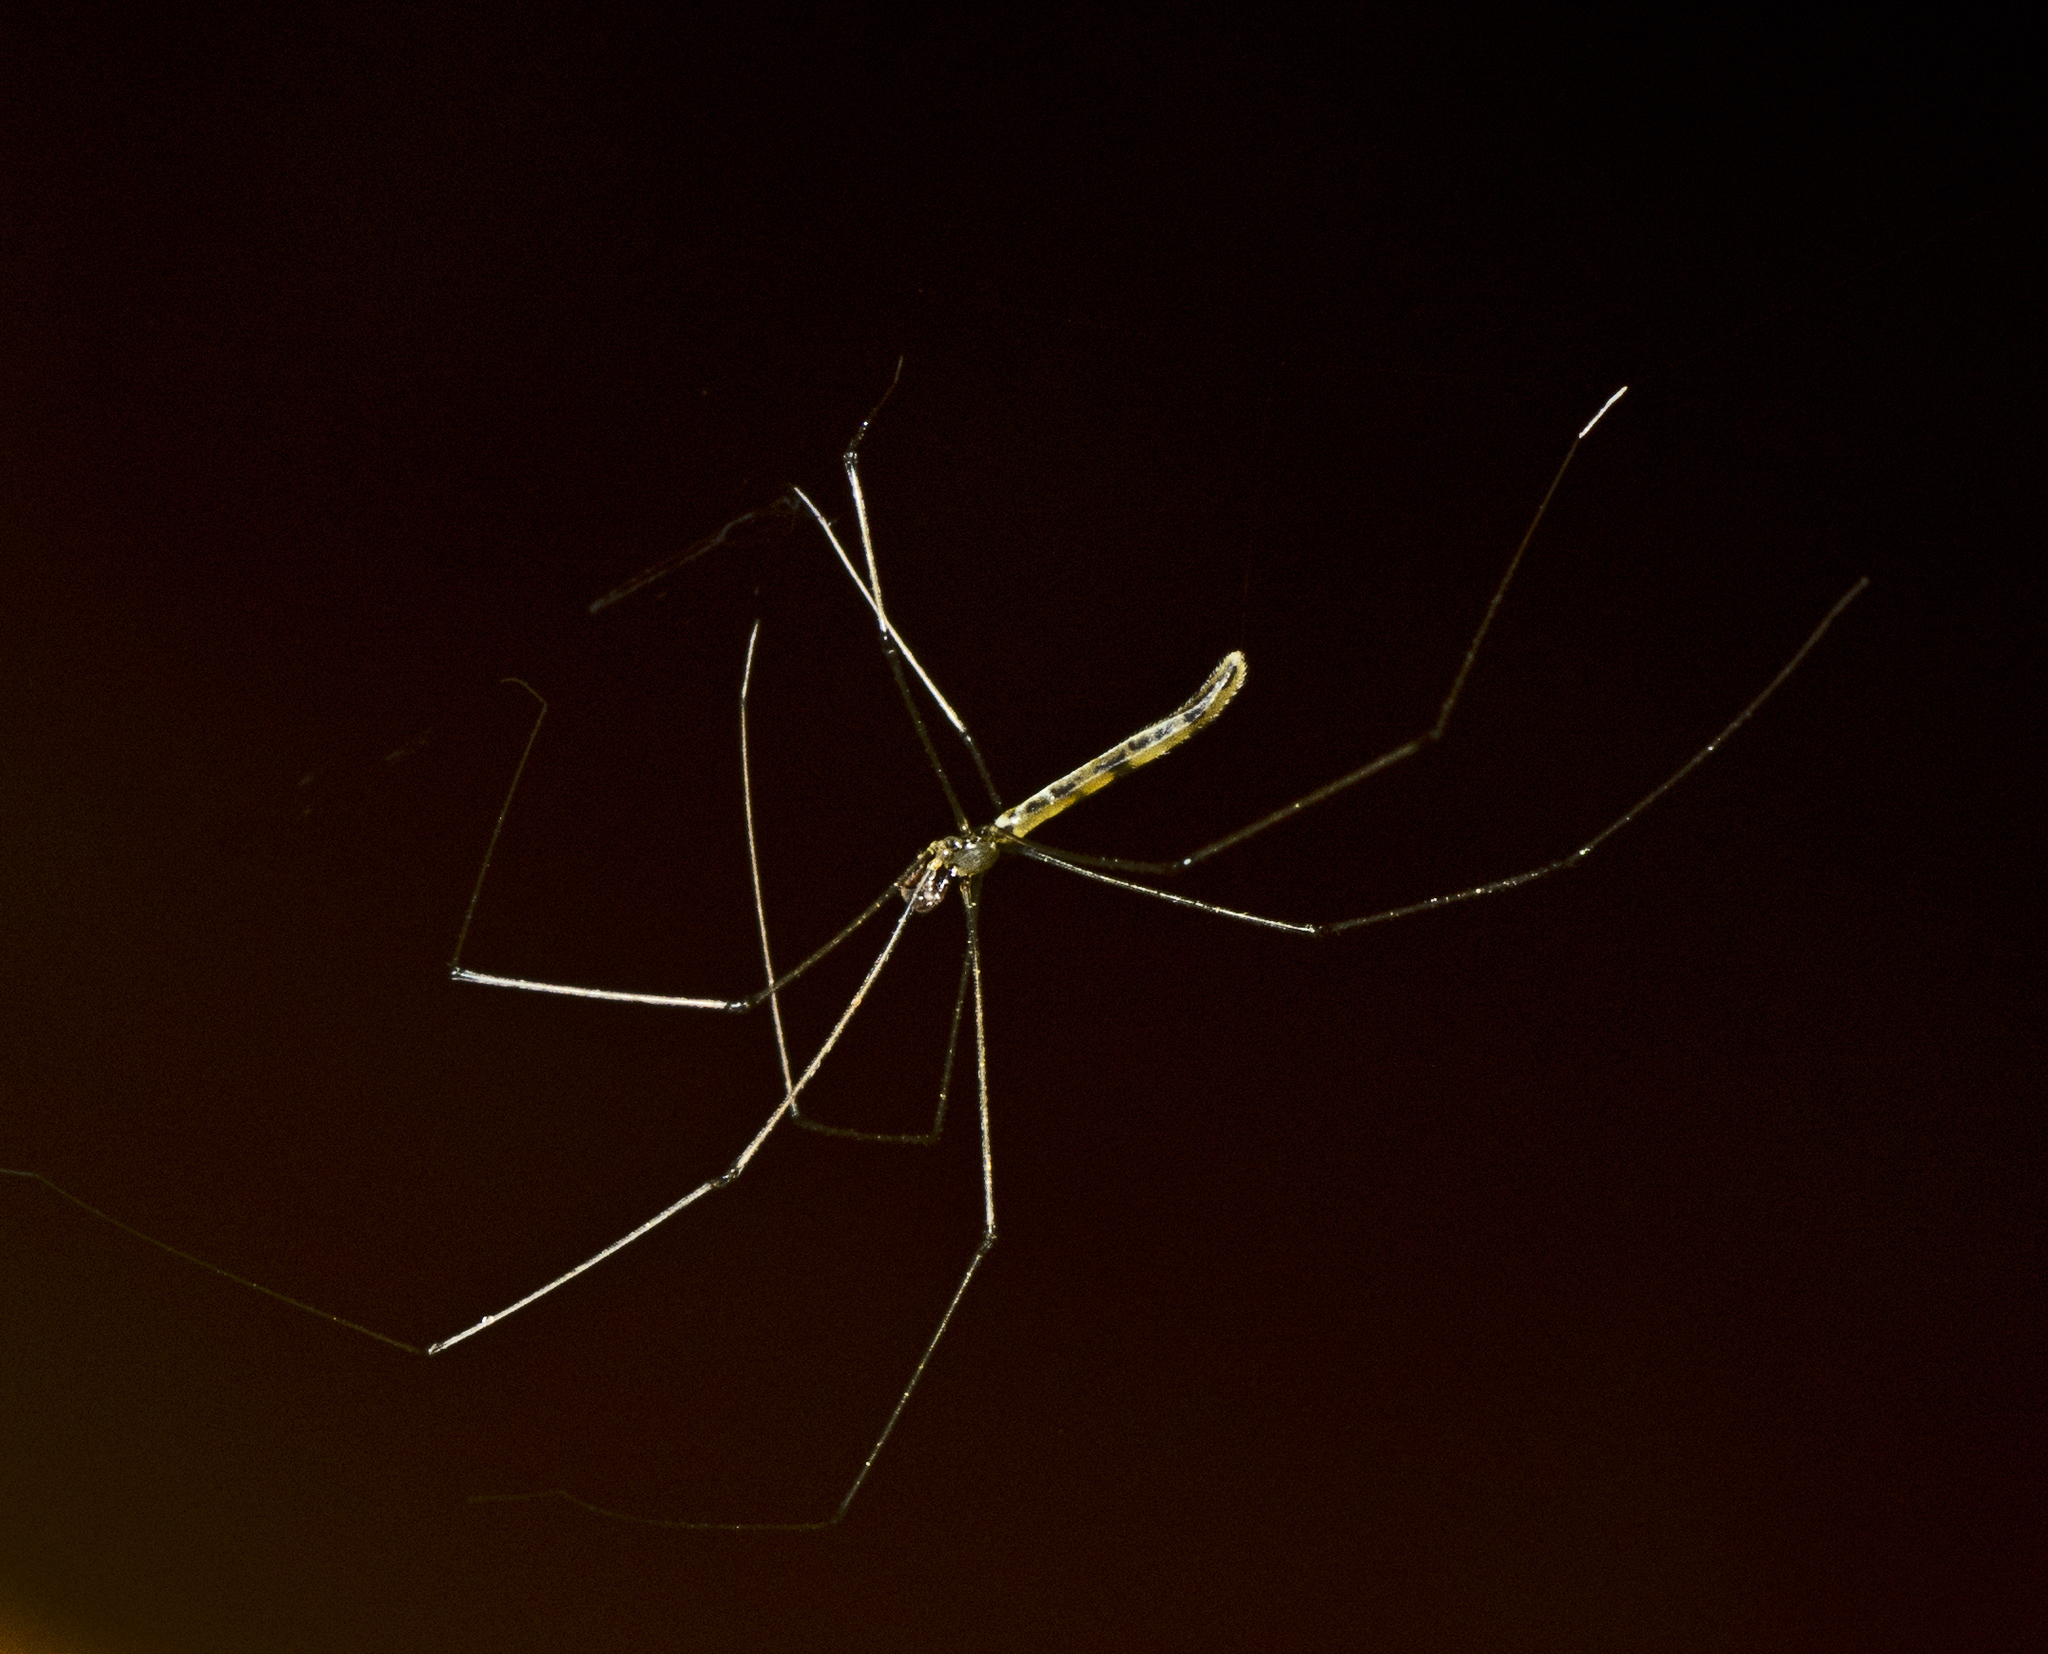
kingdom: Animalia
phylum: Arthropoda
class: Arachnida
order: Araneae
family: Pholcidae
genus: Micromerys
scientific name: Micromerys raveni
